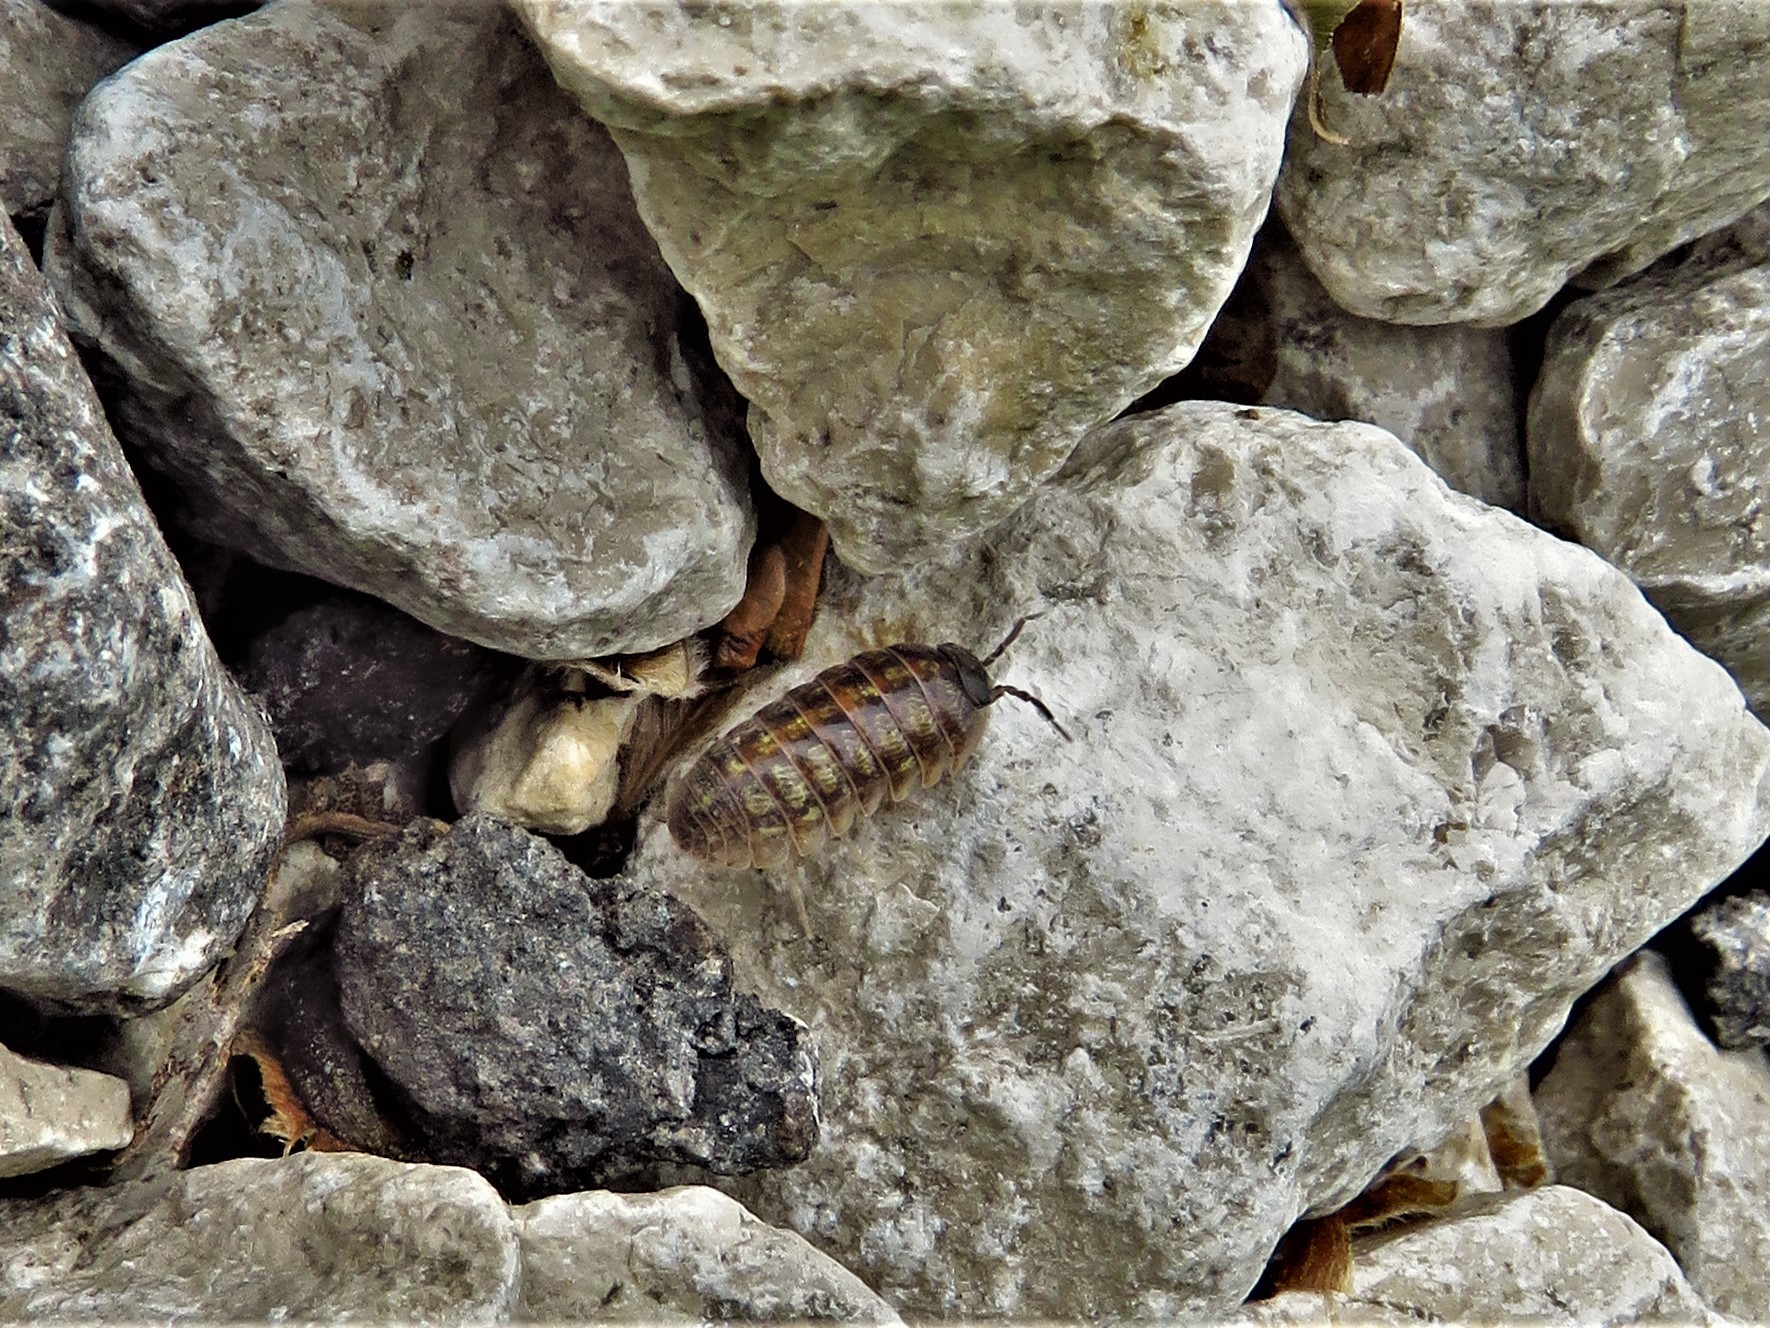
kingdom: Animalia
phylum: Arthropoda
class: Malacostraca
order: Isopoda
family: Armadillidiidae
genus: Armadillidium
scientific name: Armadillidium vulgare
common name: Common pill woodlouse
